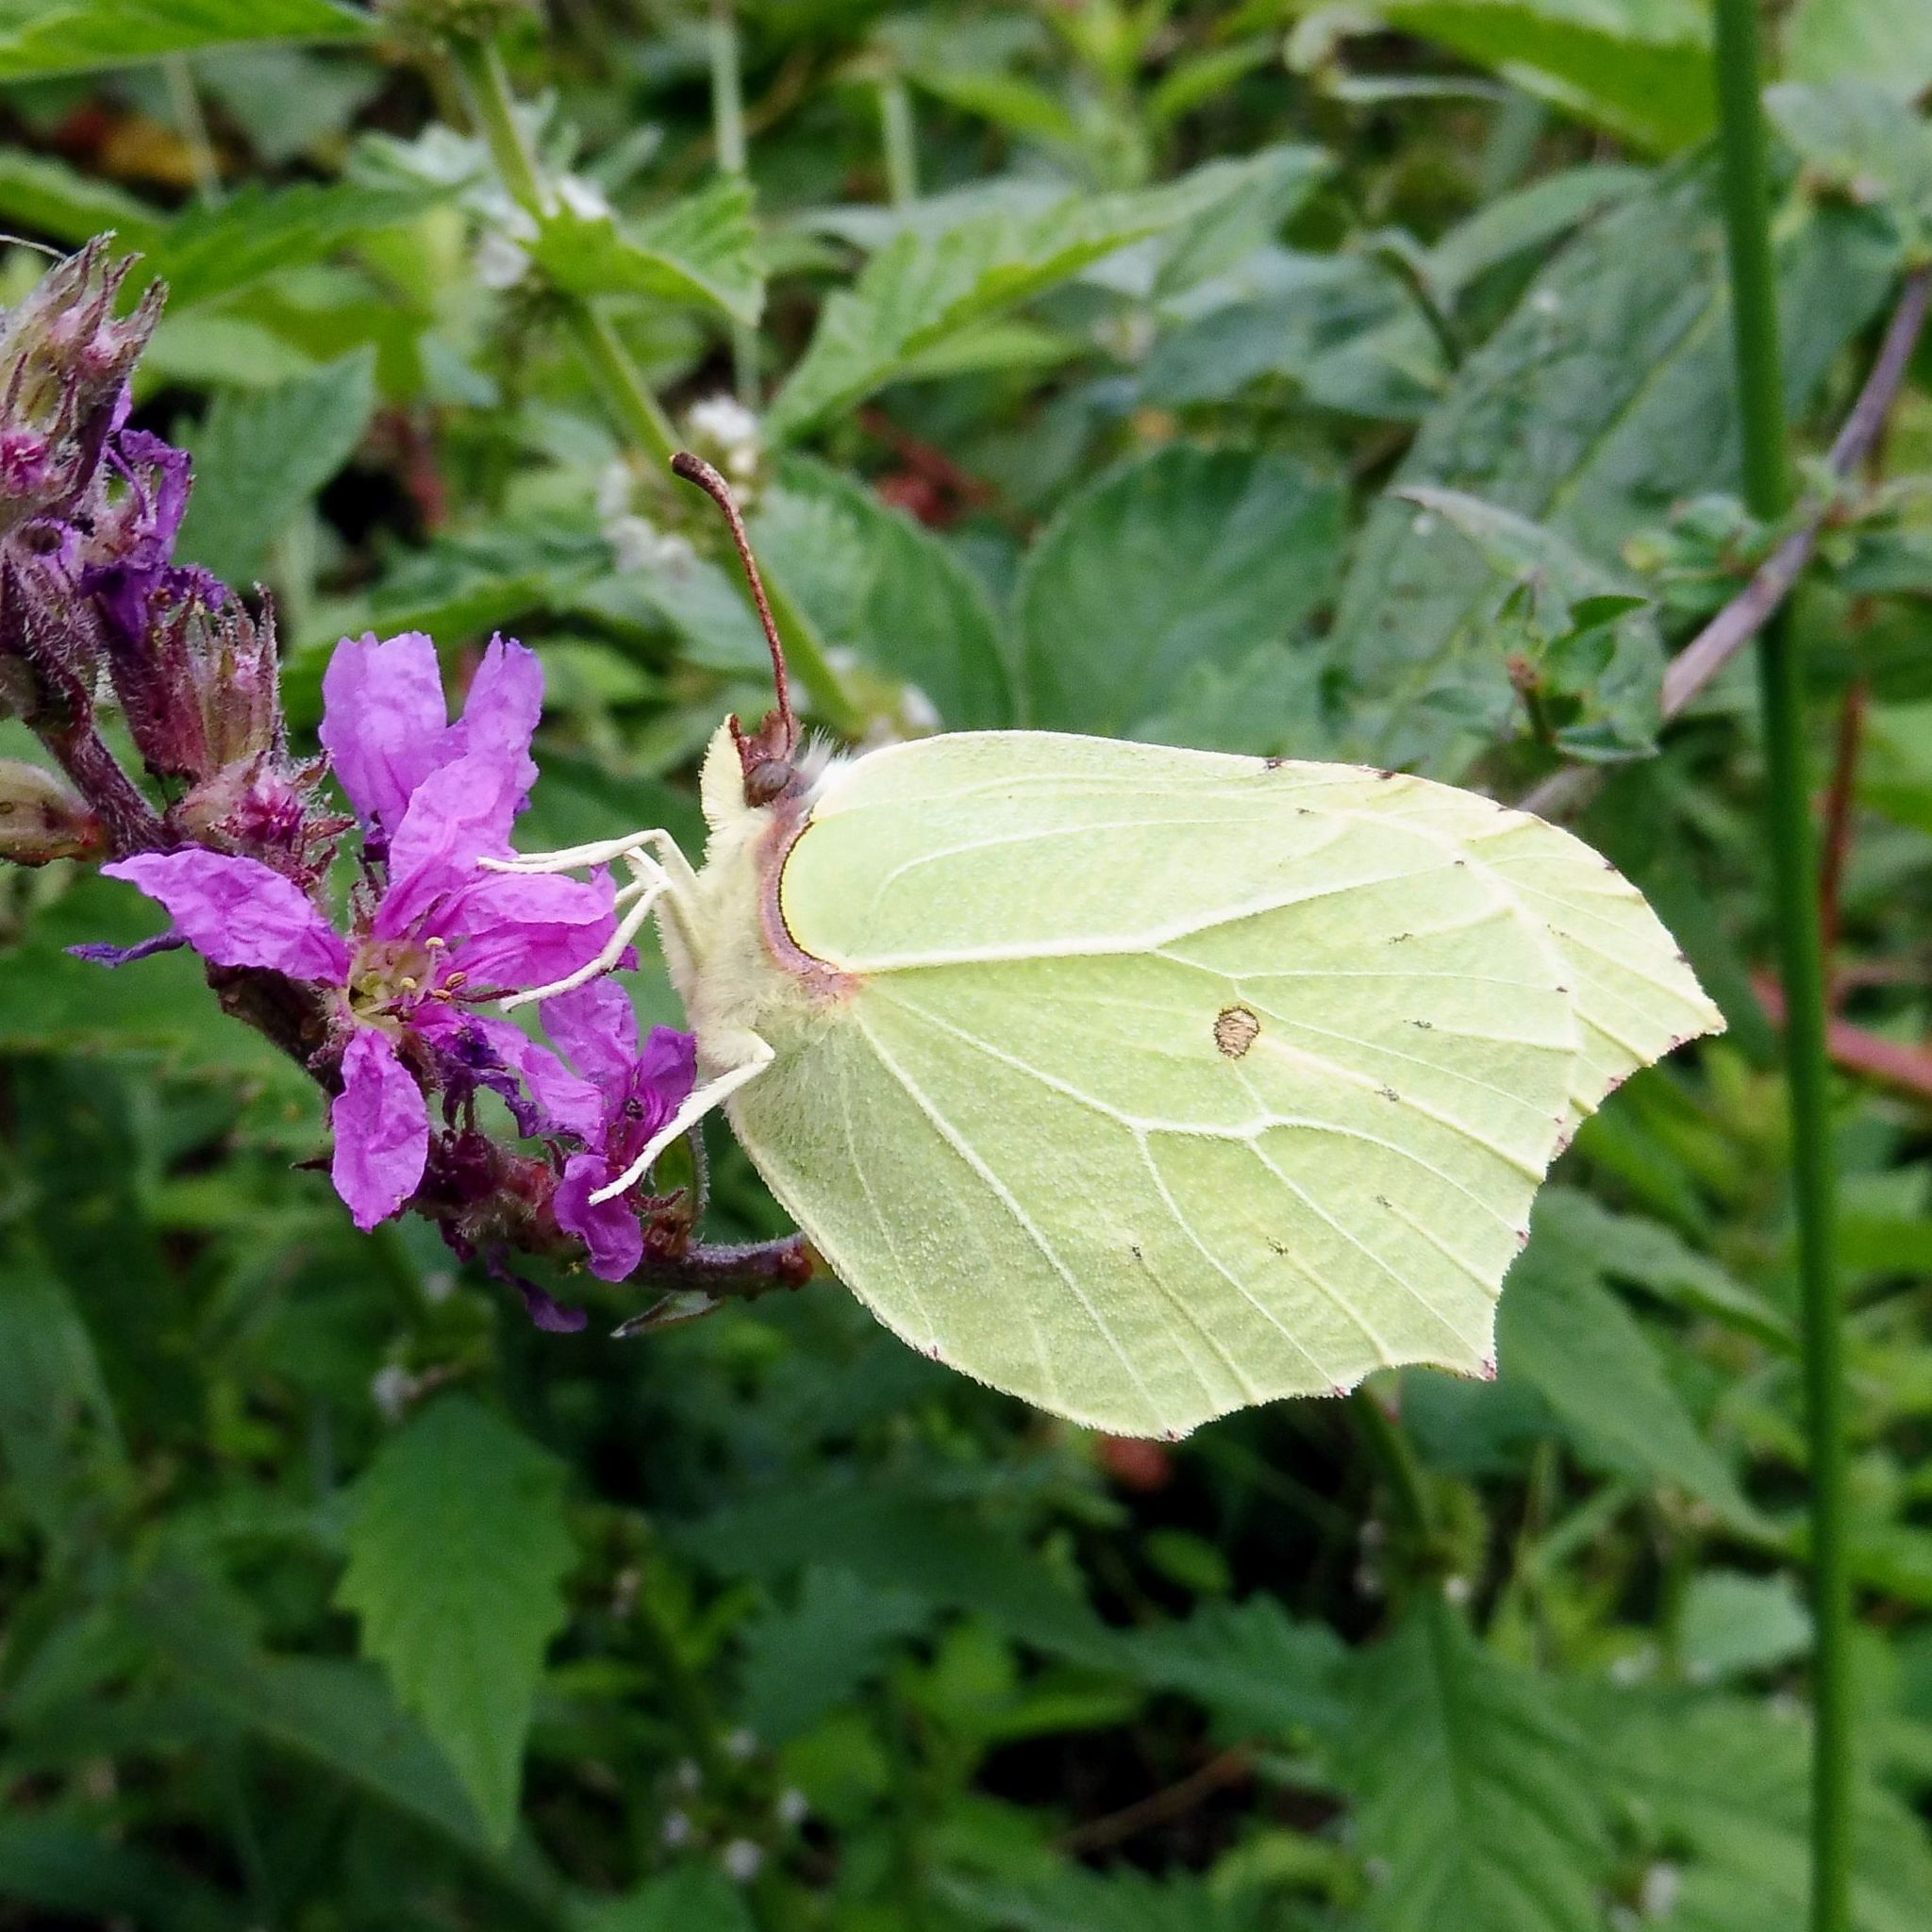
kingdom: Animalia
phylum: Arthropoda
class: Insecta
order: Lepidoptera
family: Pieridae
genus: Gonepteryx
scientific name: Gonepteryx rhamni
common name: Brimstone
